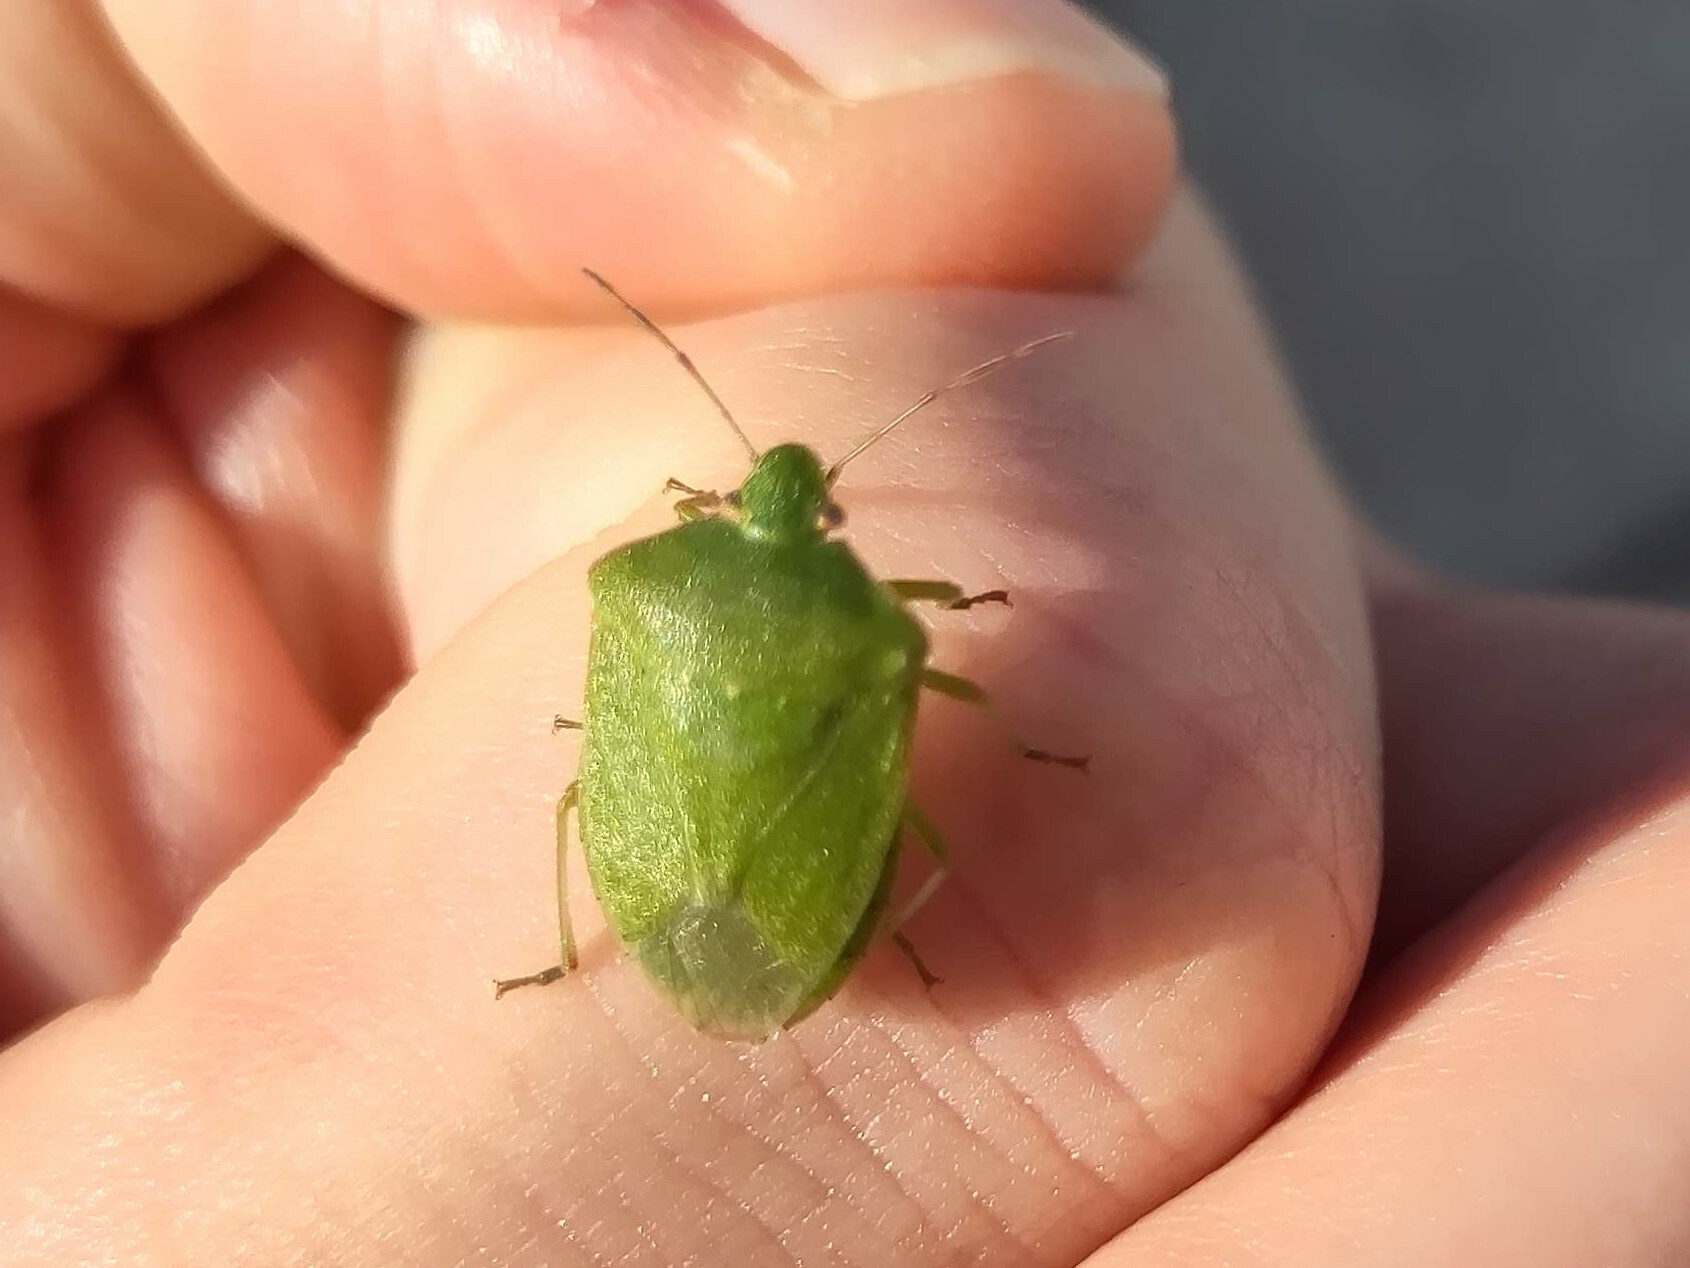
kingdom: Animalia
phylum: Arthropoda
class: Insecta
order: Hemiptera
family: Pentatomidae
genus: Nezara
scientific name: Nezara viridula
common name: Southern green stink bug
